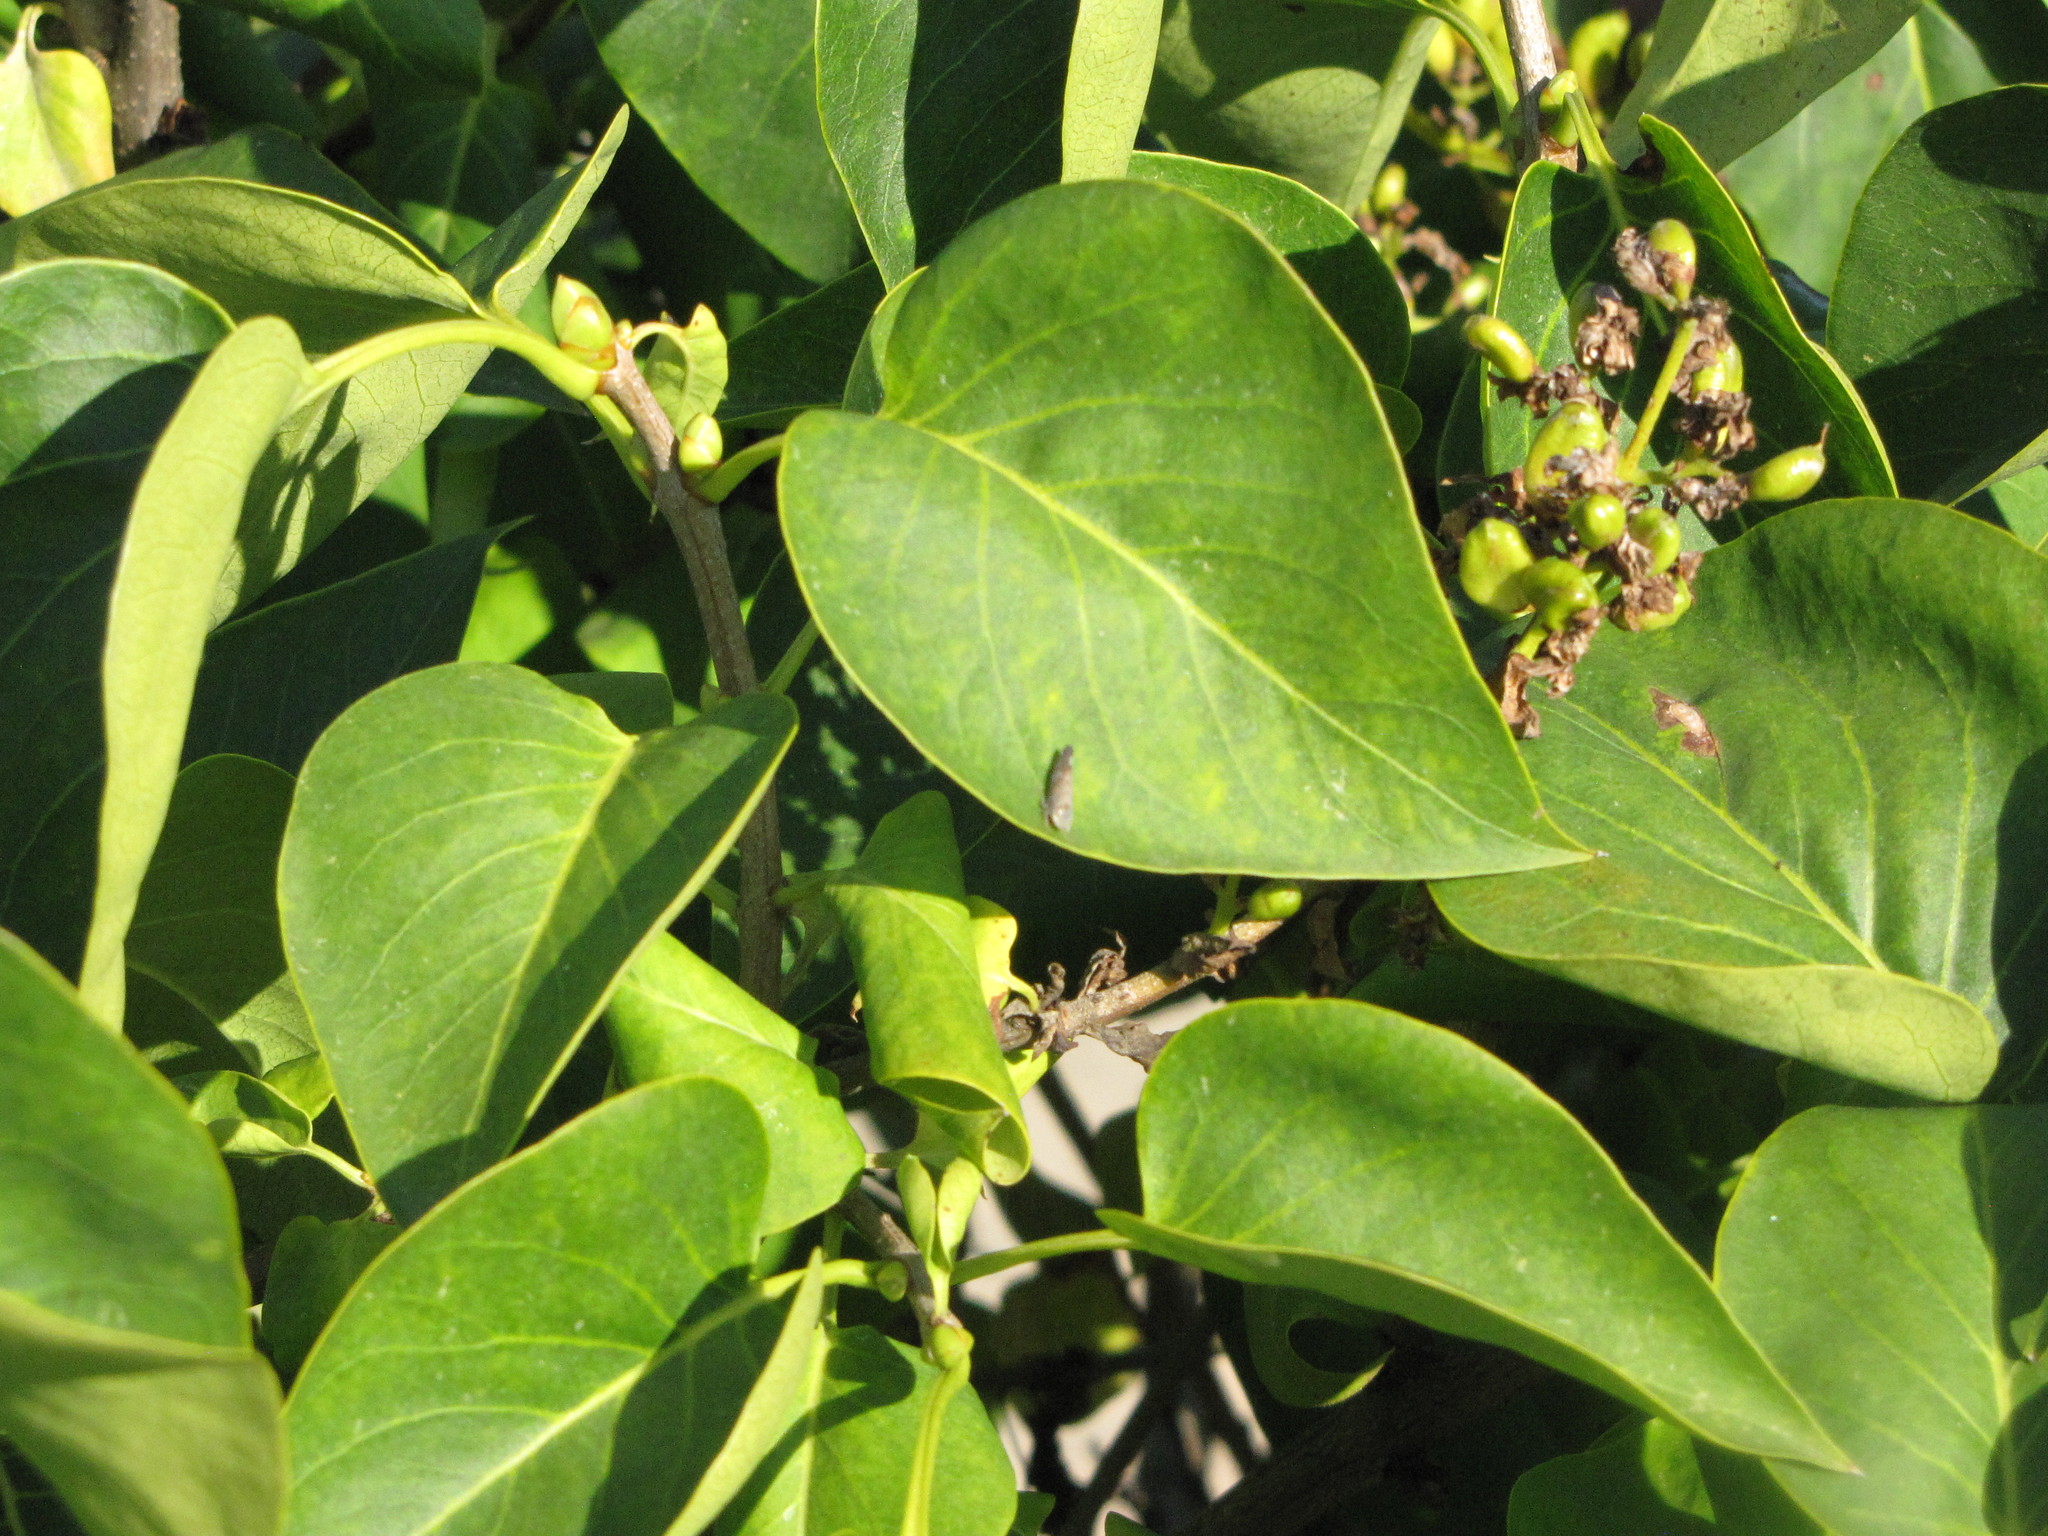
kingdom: Animalia
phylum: Arthropoda
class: Insecta
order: Hemiptera
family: Cicadellidae
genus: Fieberiella
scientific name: Fieberiella florii
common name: Flor’s leafhopper
